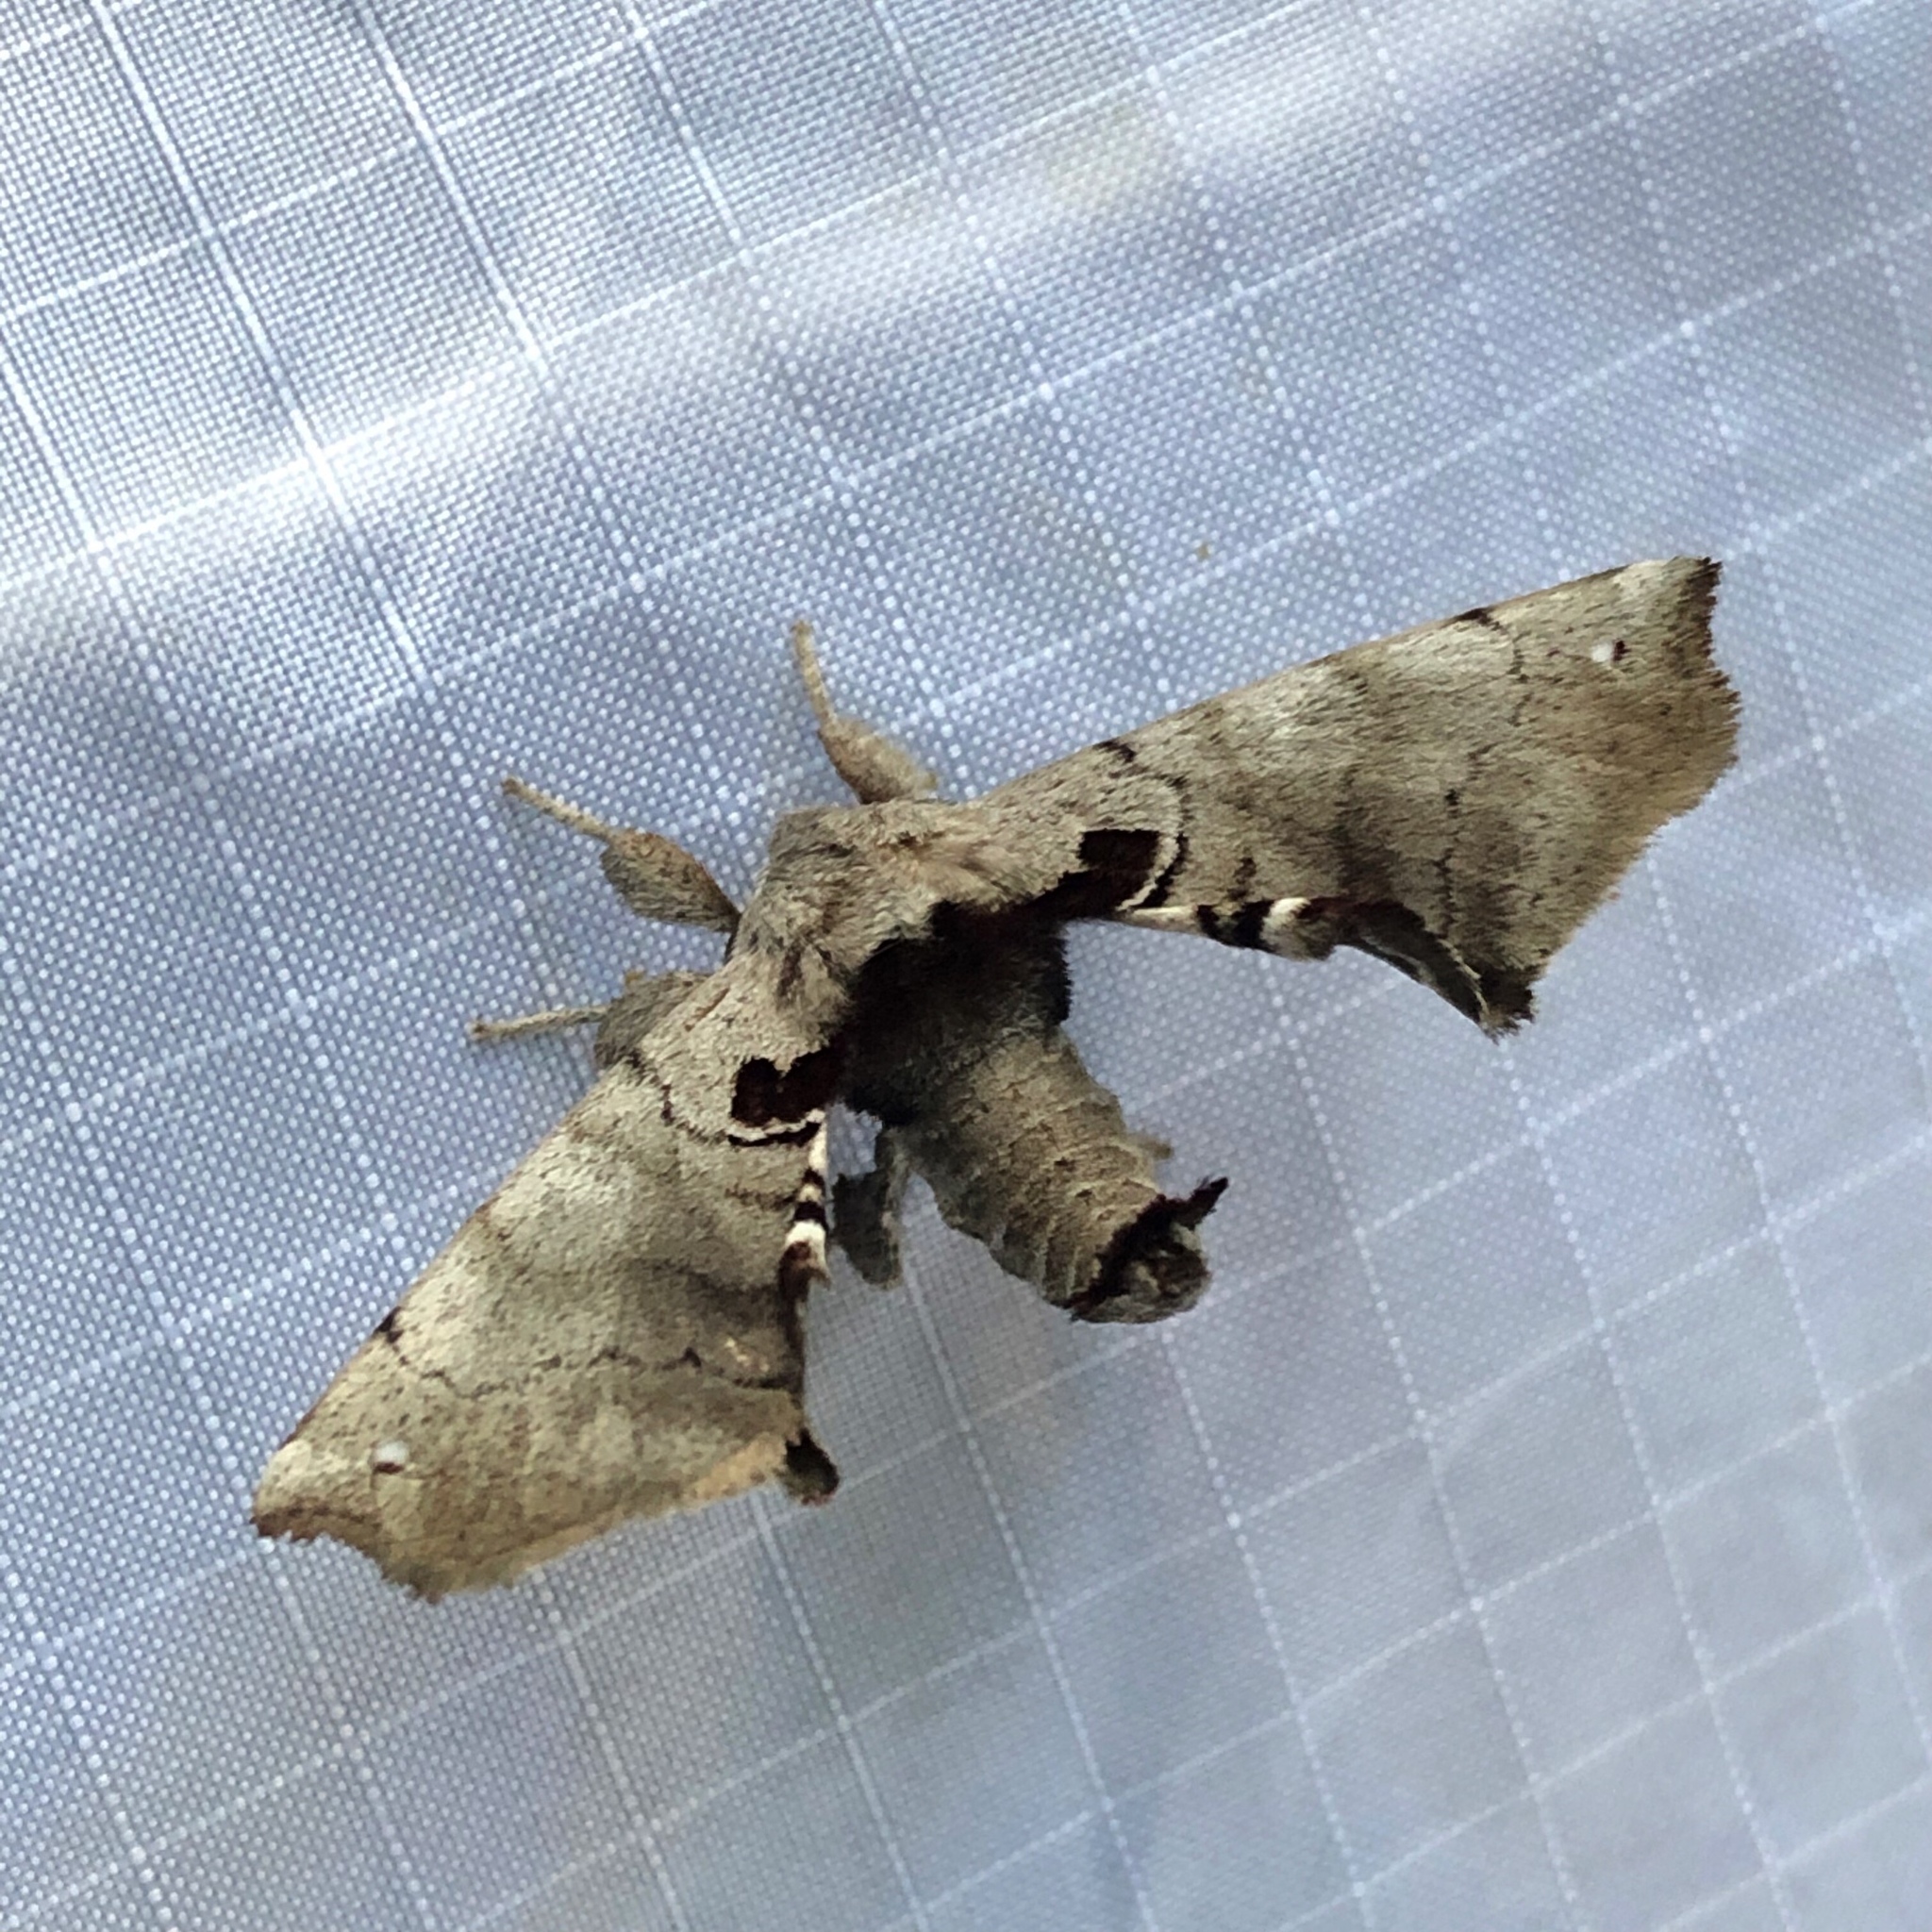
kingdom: Animalia
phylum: Arthropoda
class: Insecta
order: Lepidoptera
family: Apatelodidae
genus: Hygrochroa
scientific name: Hygrochroa Apatelodes torrefacta
